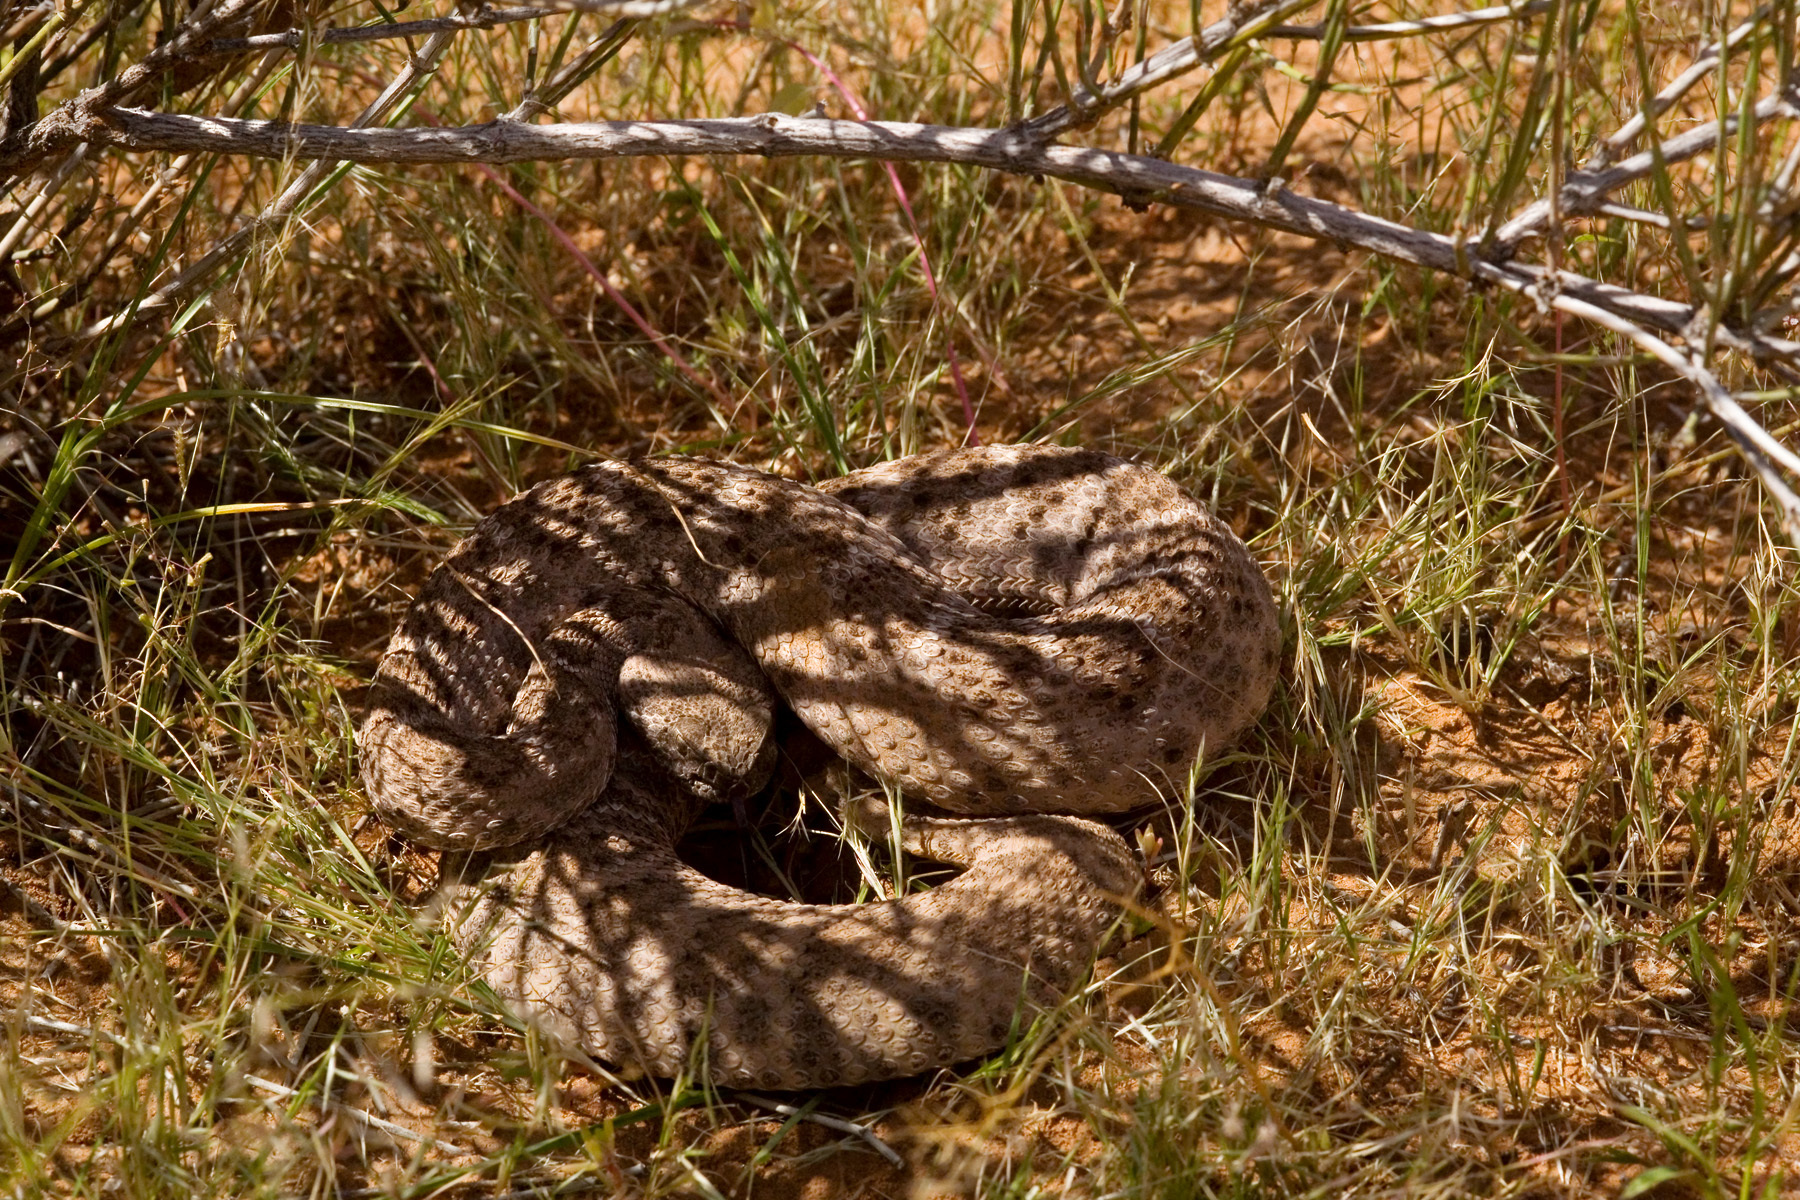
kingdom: Animalia
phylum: Chordata
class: Squamata
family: Viperidae
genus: Crotalus
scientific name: Crotalus atrox
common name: Western diamond-backed rattlesnake
